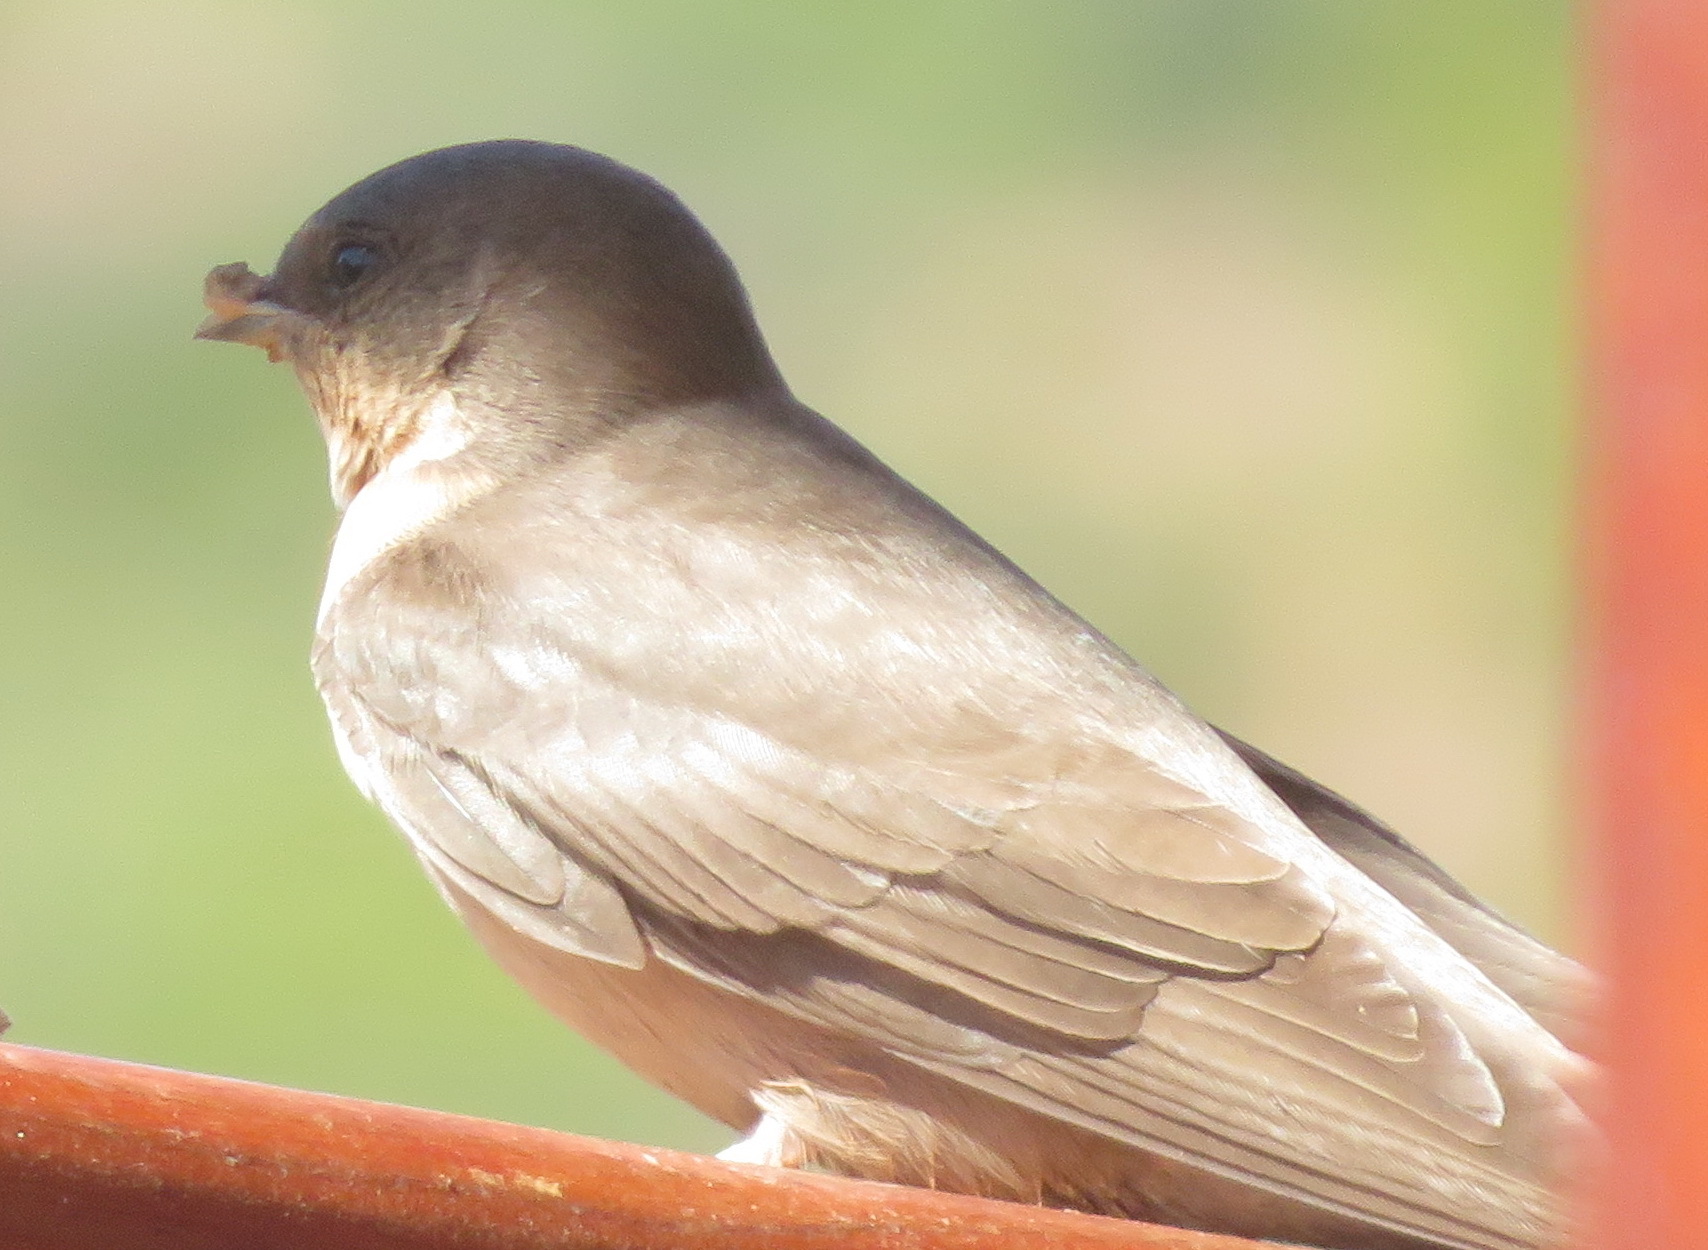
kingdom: Animalia
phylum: Chordata
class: Aves
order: Passeriformes
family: Hirundinidae
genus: Ptyonoprogne
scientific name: Ptyonoprogne fuligula
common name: Rock martin
